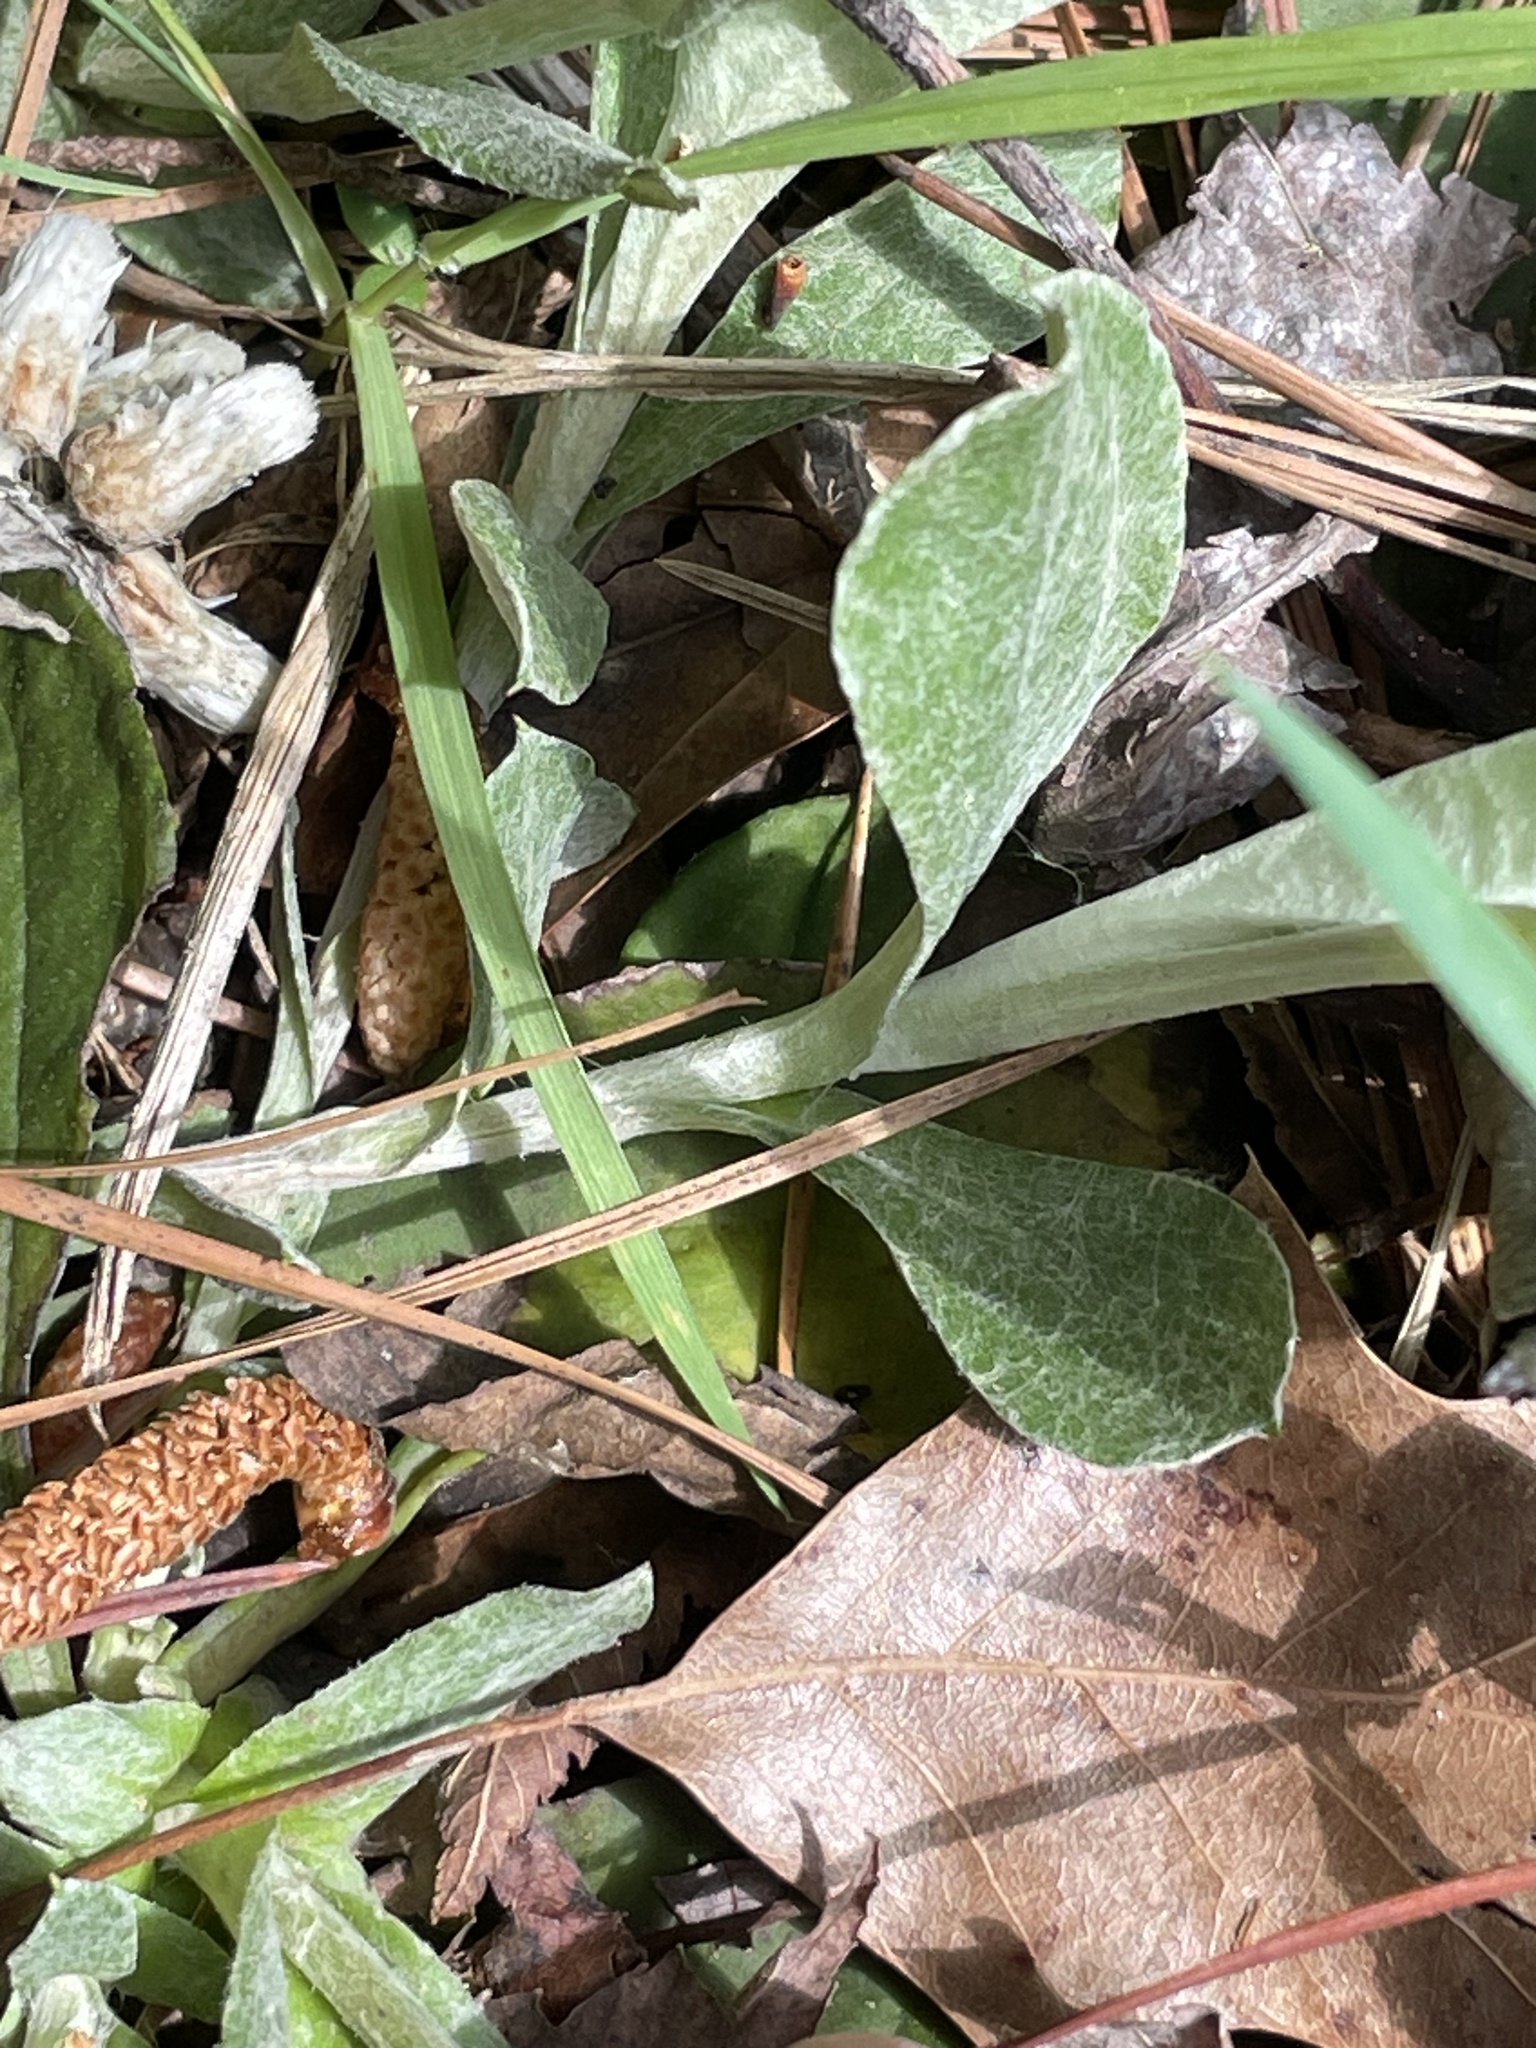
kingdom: Plantae
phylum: Tracheophyta
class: Magnoliopsida
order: Asterales
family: Asteraceae
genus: Antennaria
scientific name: Antennaria parlinii
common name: Parlin's pussytoes
